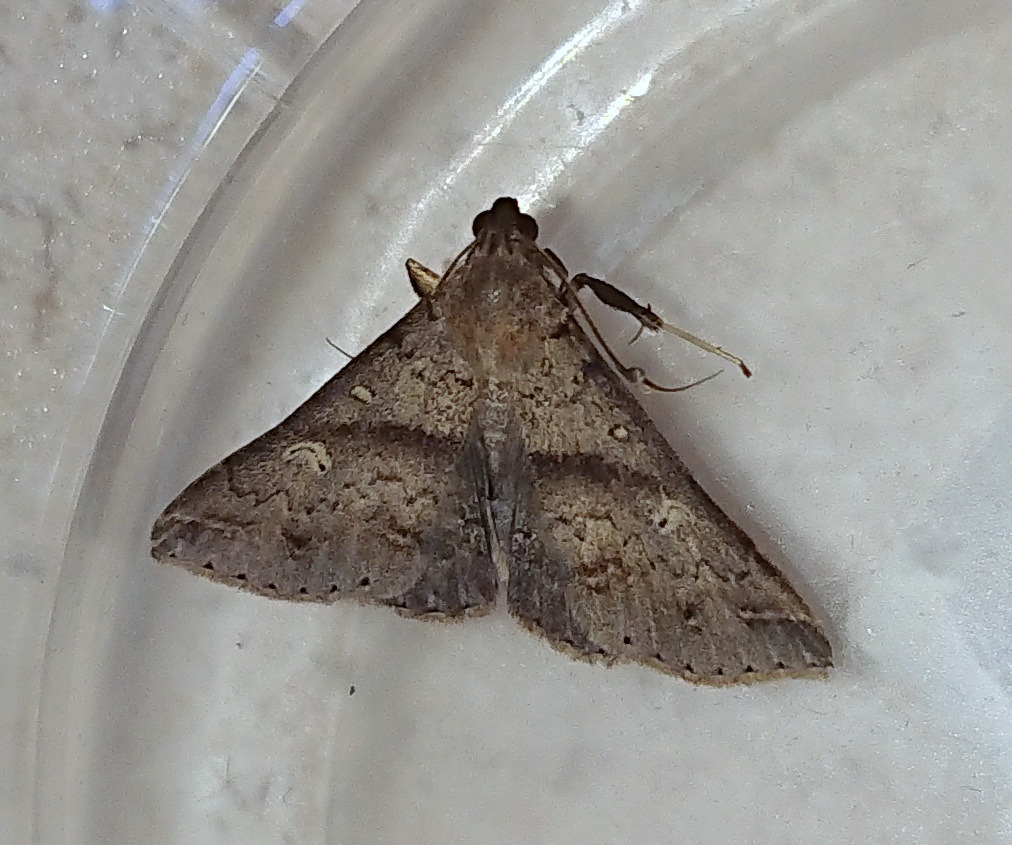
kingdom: Animalia
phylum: Arthropoda
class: Insecta
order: Lepidoptera
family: Erebidae
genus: Renia
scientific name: Renia discoloralis
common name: Discolored renia moth
